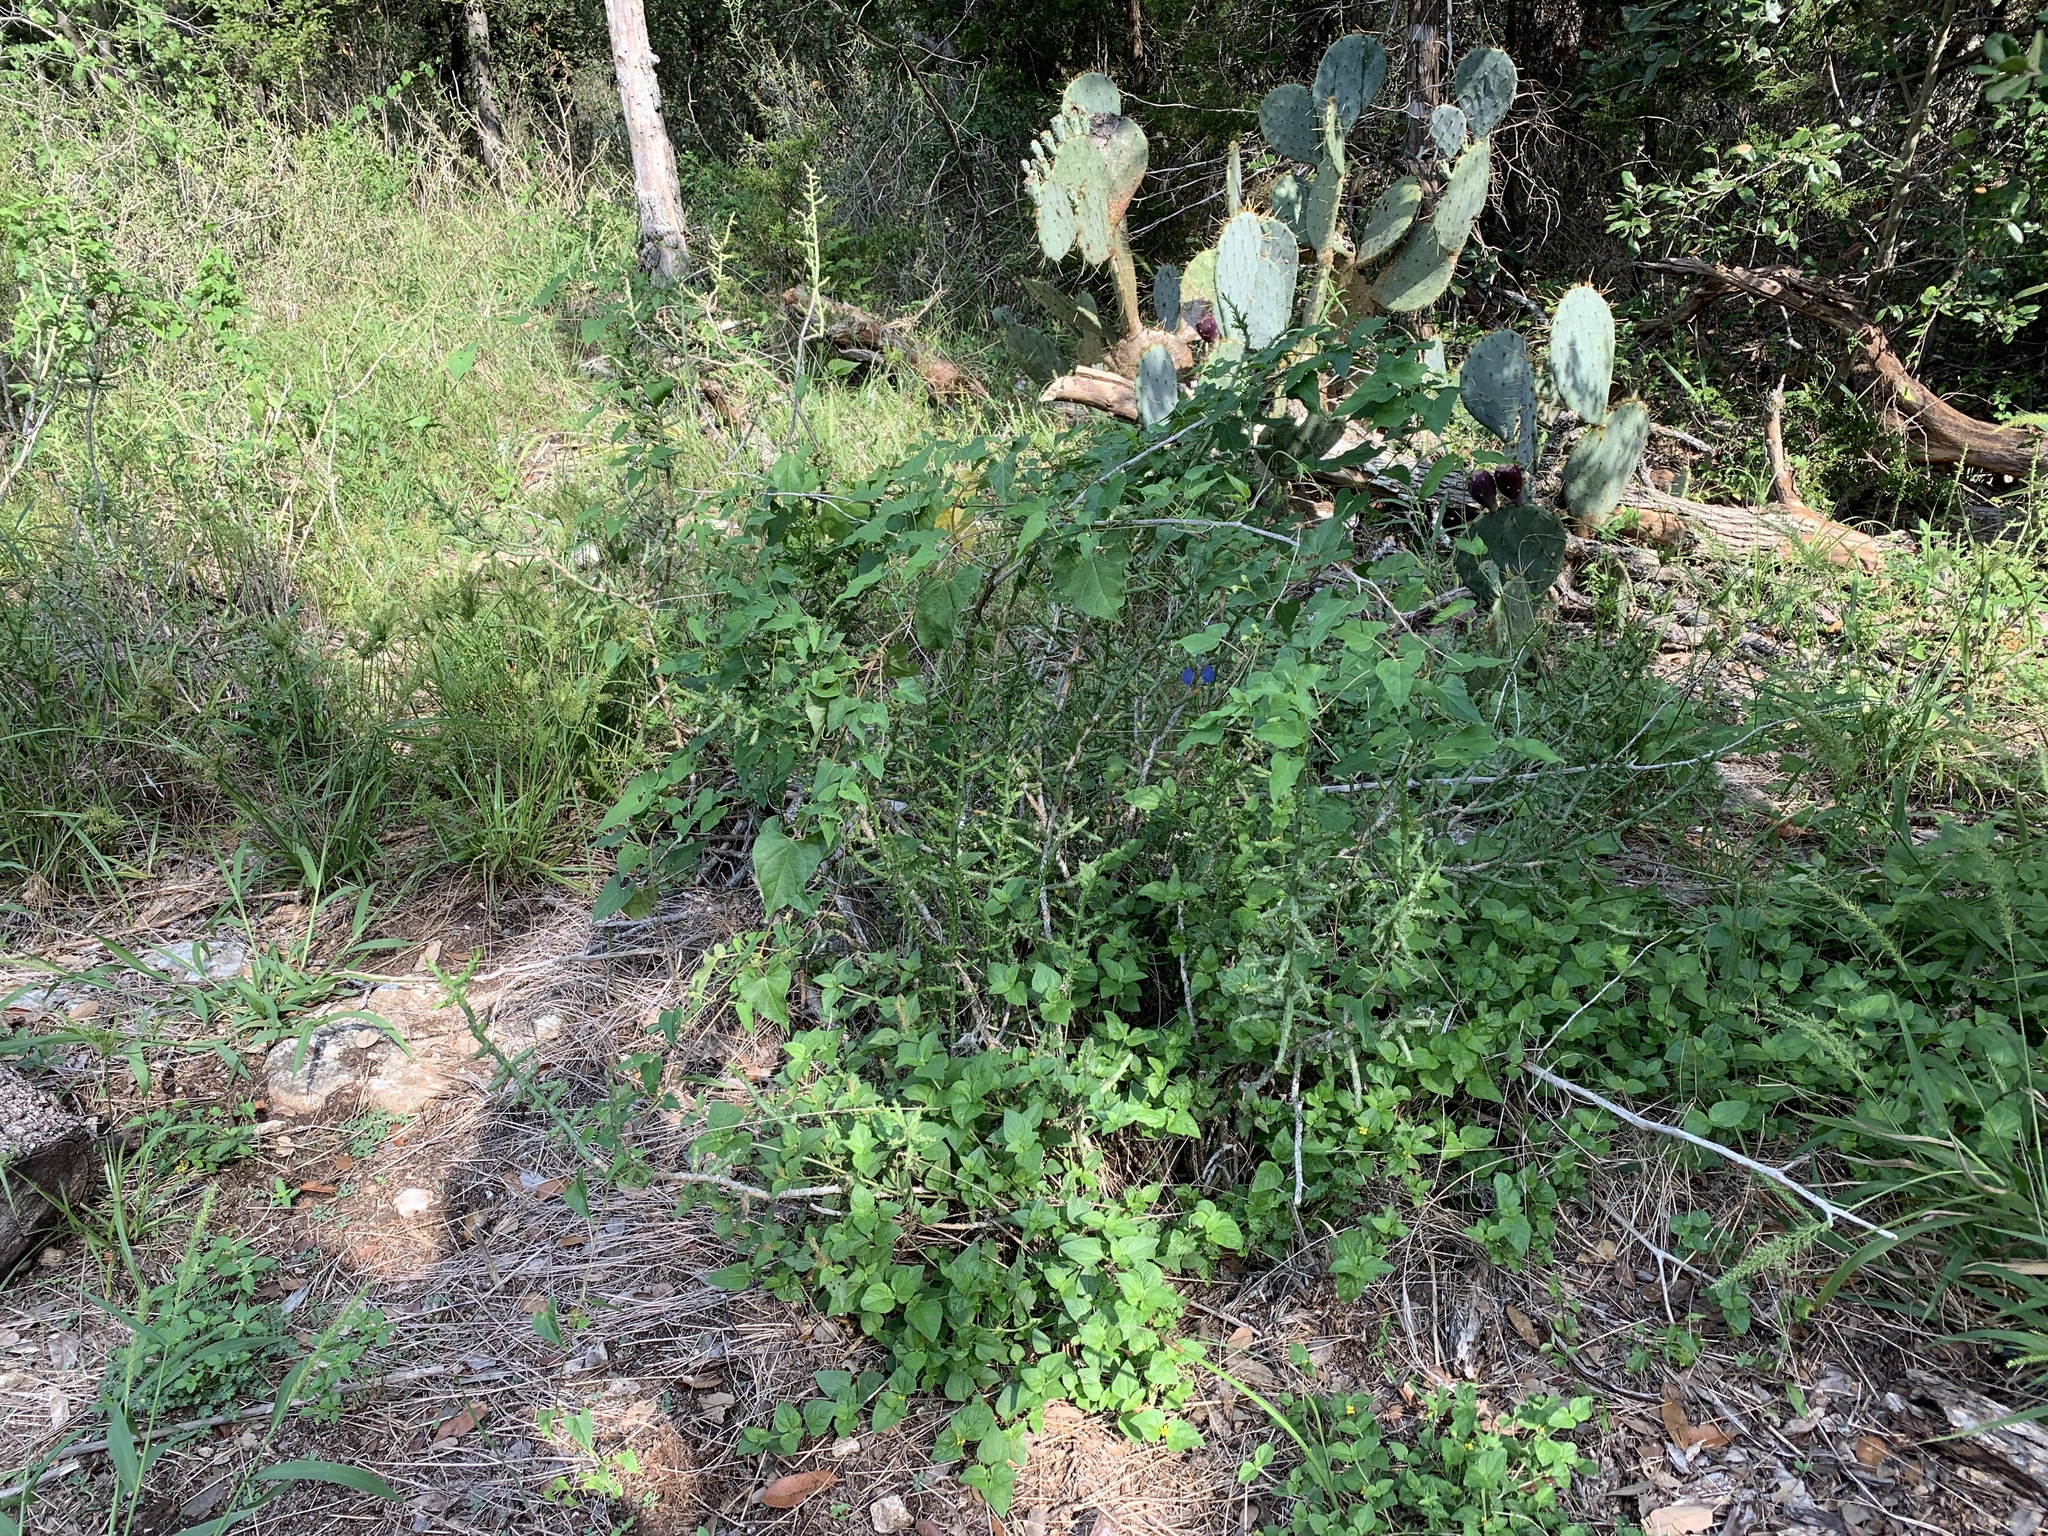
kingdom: Plantae
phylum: Tracheophyta
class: Magnoliopsida
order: Gentianales
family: Apocynaceae
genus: Cynanchum
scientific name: Cynanchum racemosum
